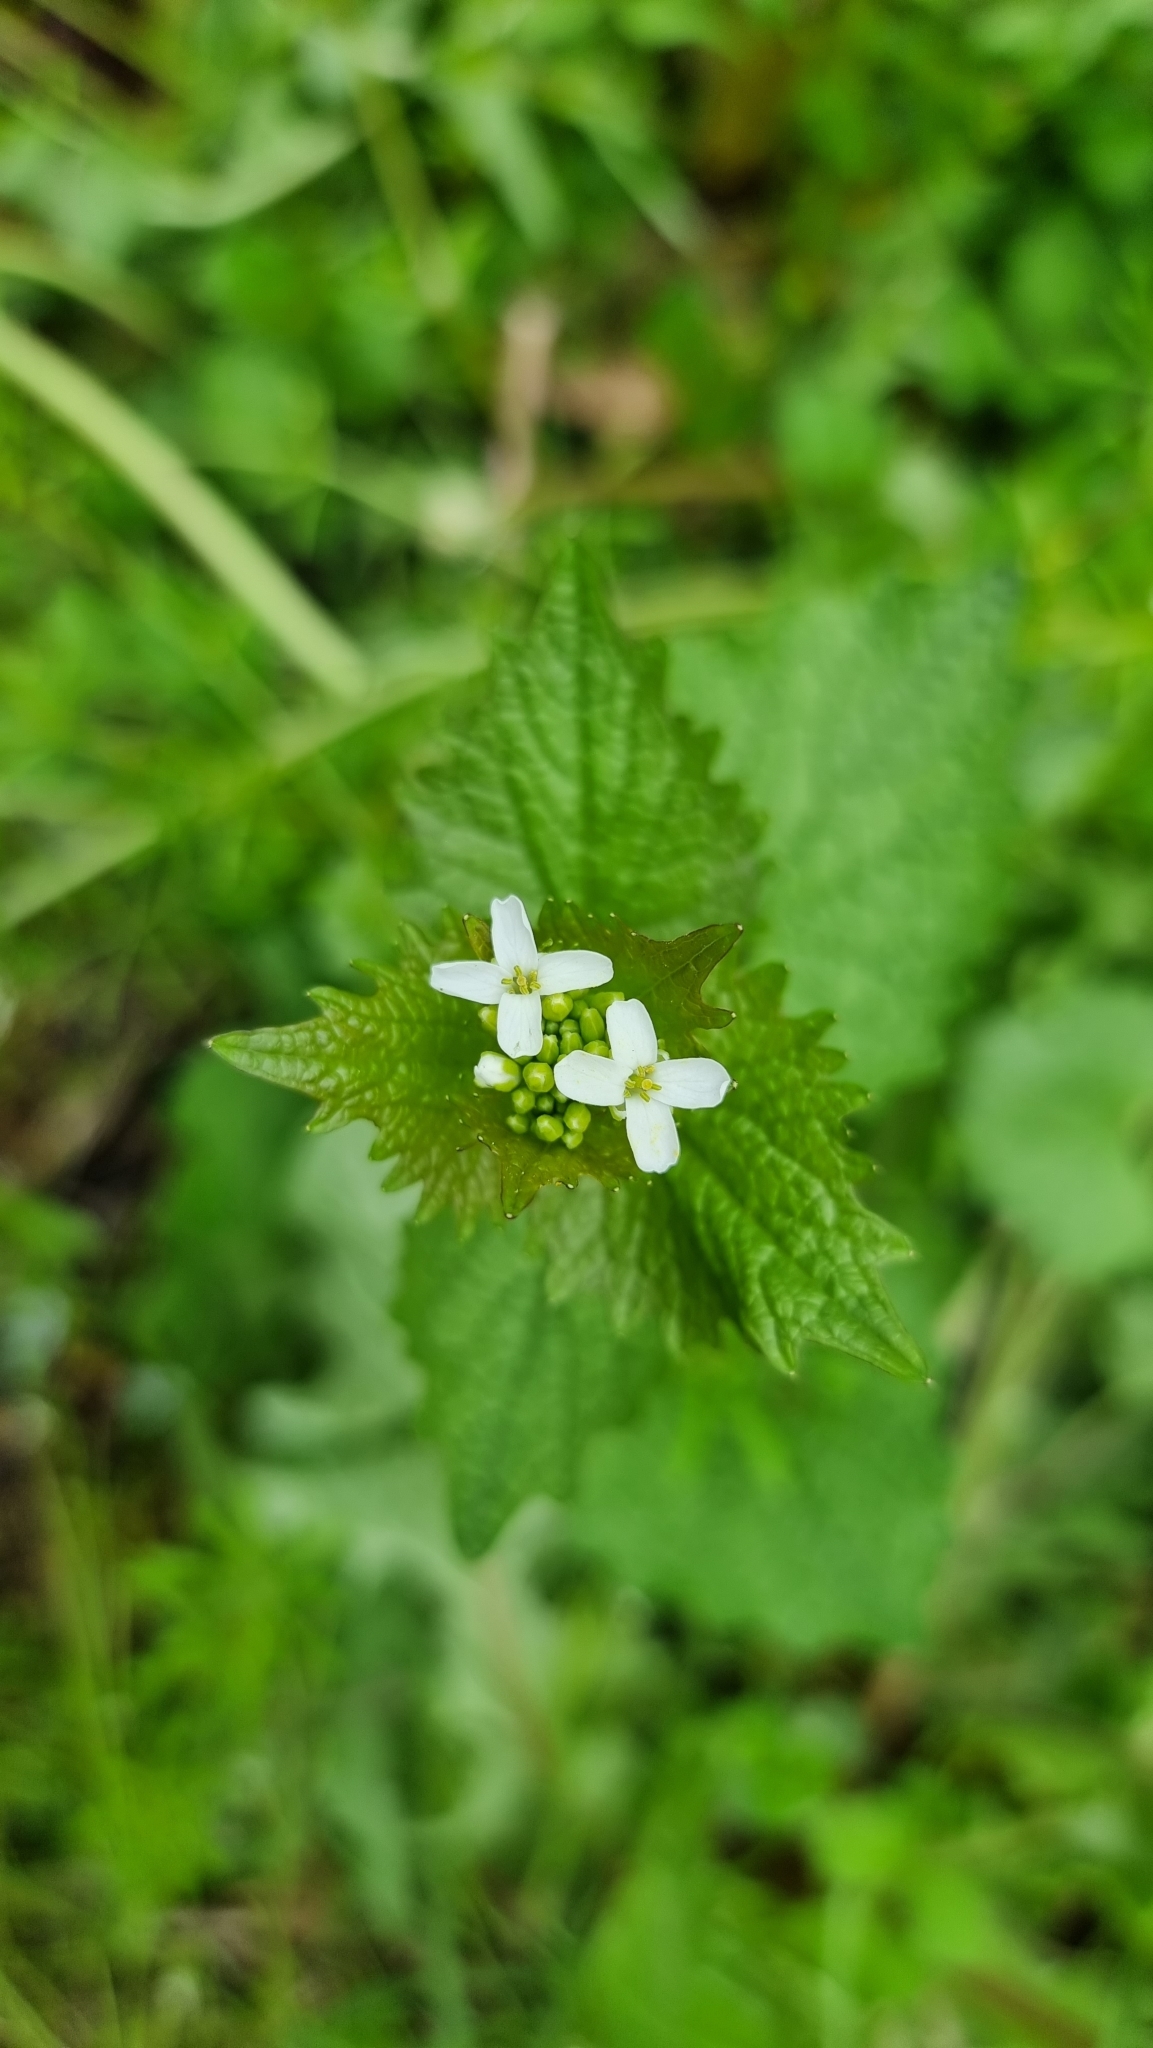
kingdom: Plantae
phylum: Tracheophyta
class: Magnoliopsida
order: Brassicales
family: Brassicaceae
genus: Alliaria
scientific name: Alliaria petiolata
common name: Garlic mustard
